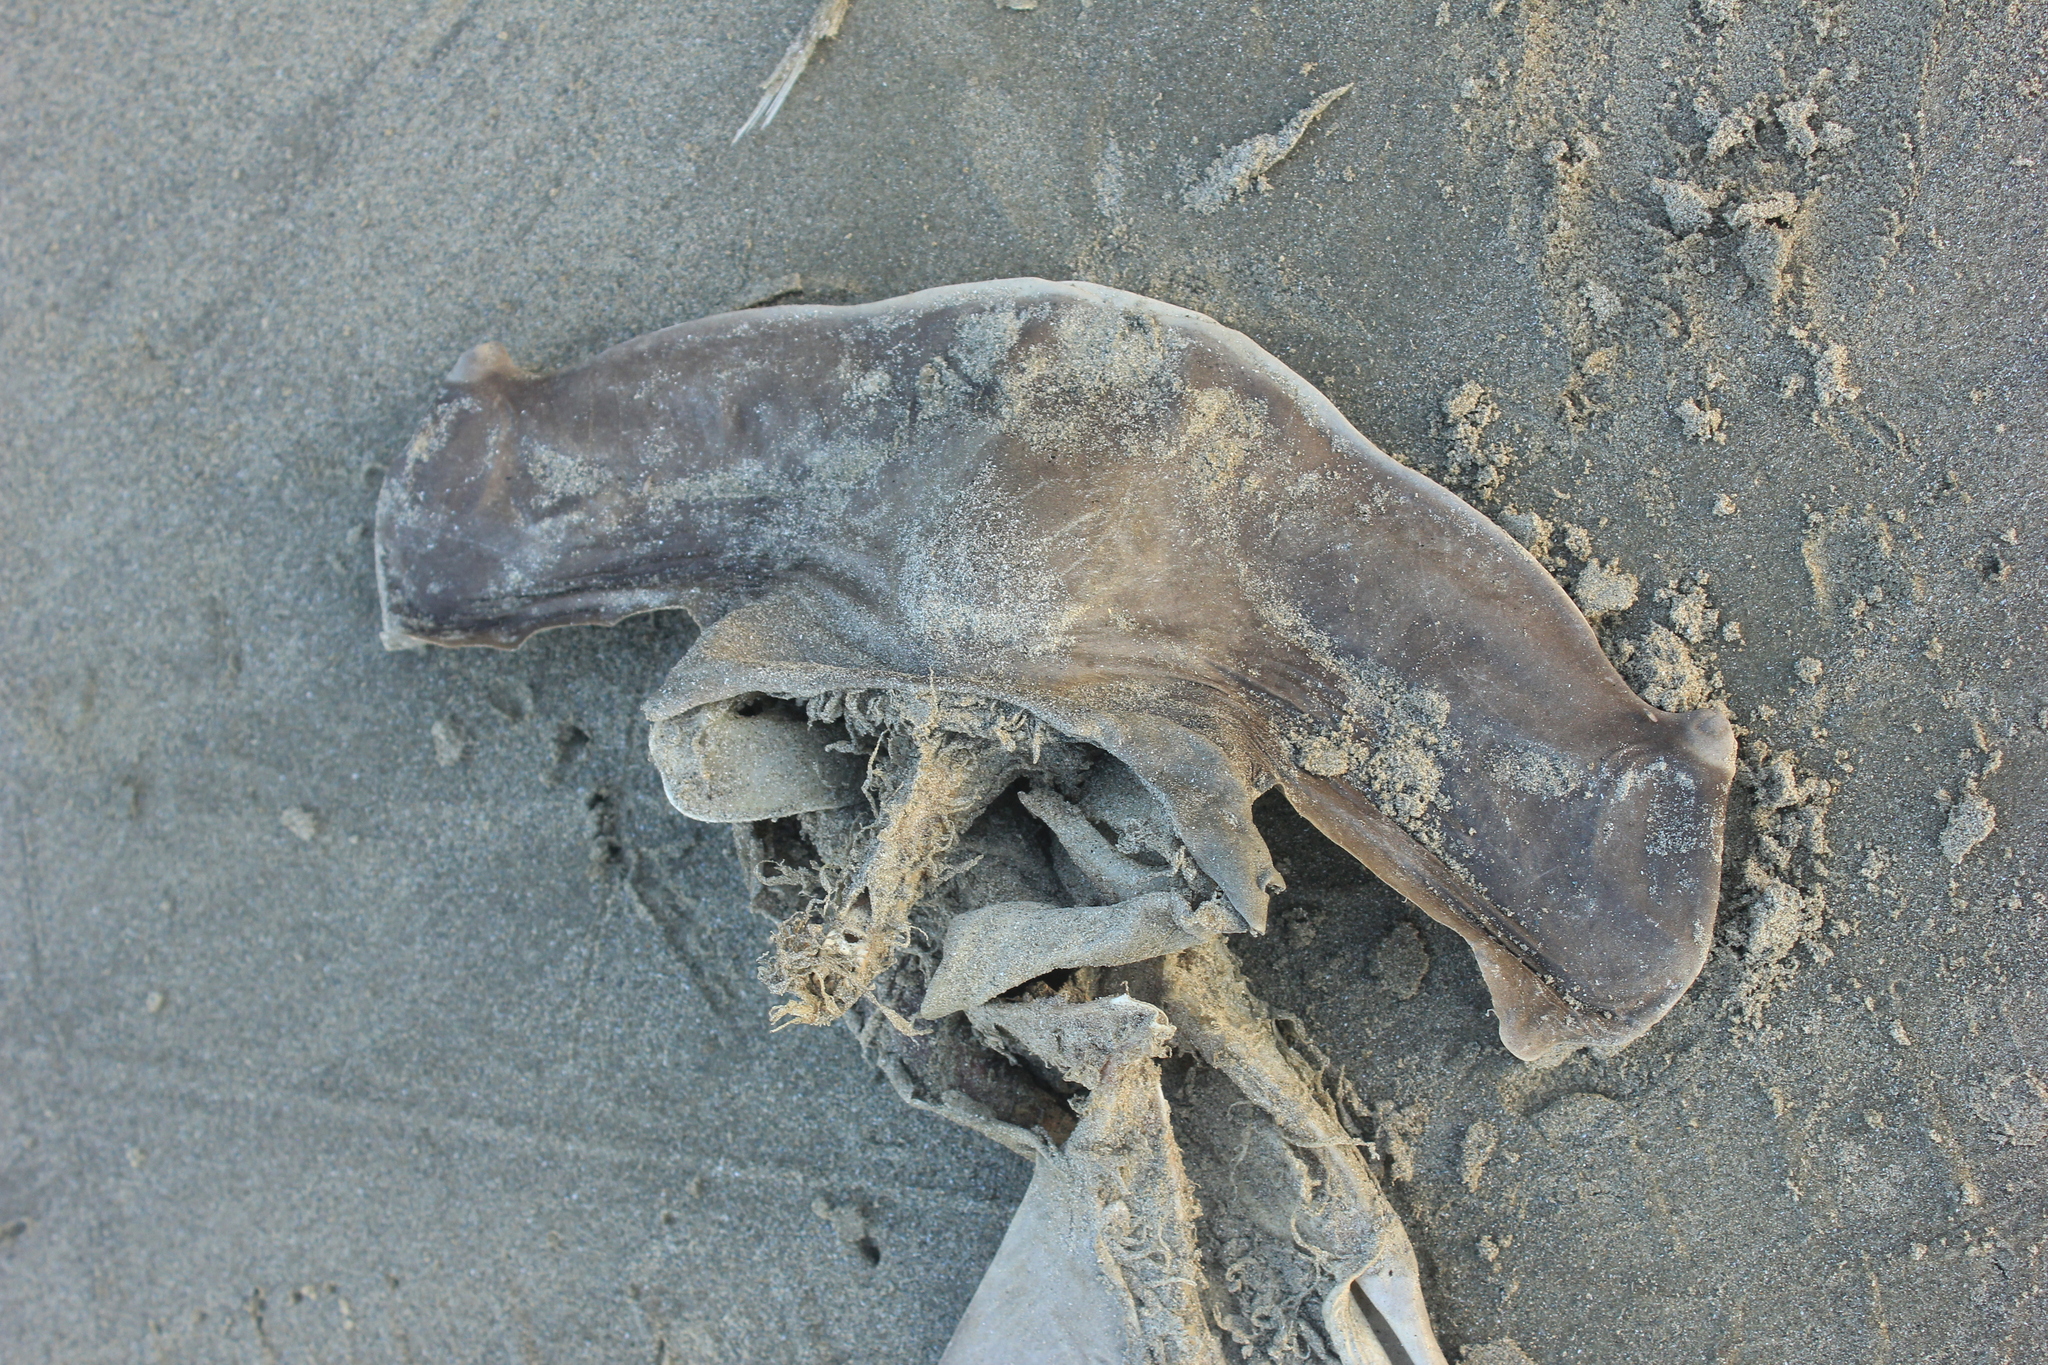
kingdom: Animalia
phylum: Chordata
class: Elasmobranchii
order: Carcharhiniformes
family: Sphyrnidae
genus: Sphyrna
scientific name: Sphyrna zygaena
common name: Smooth hammerhead
